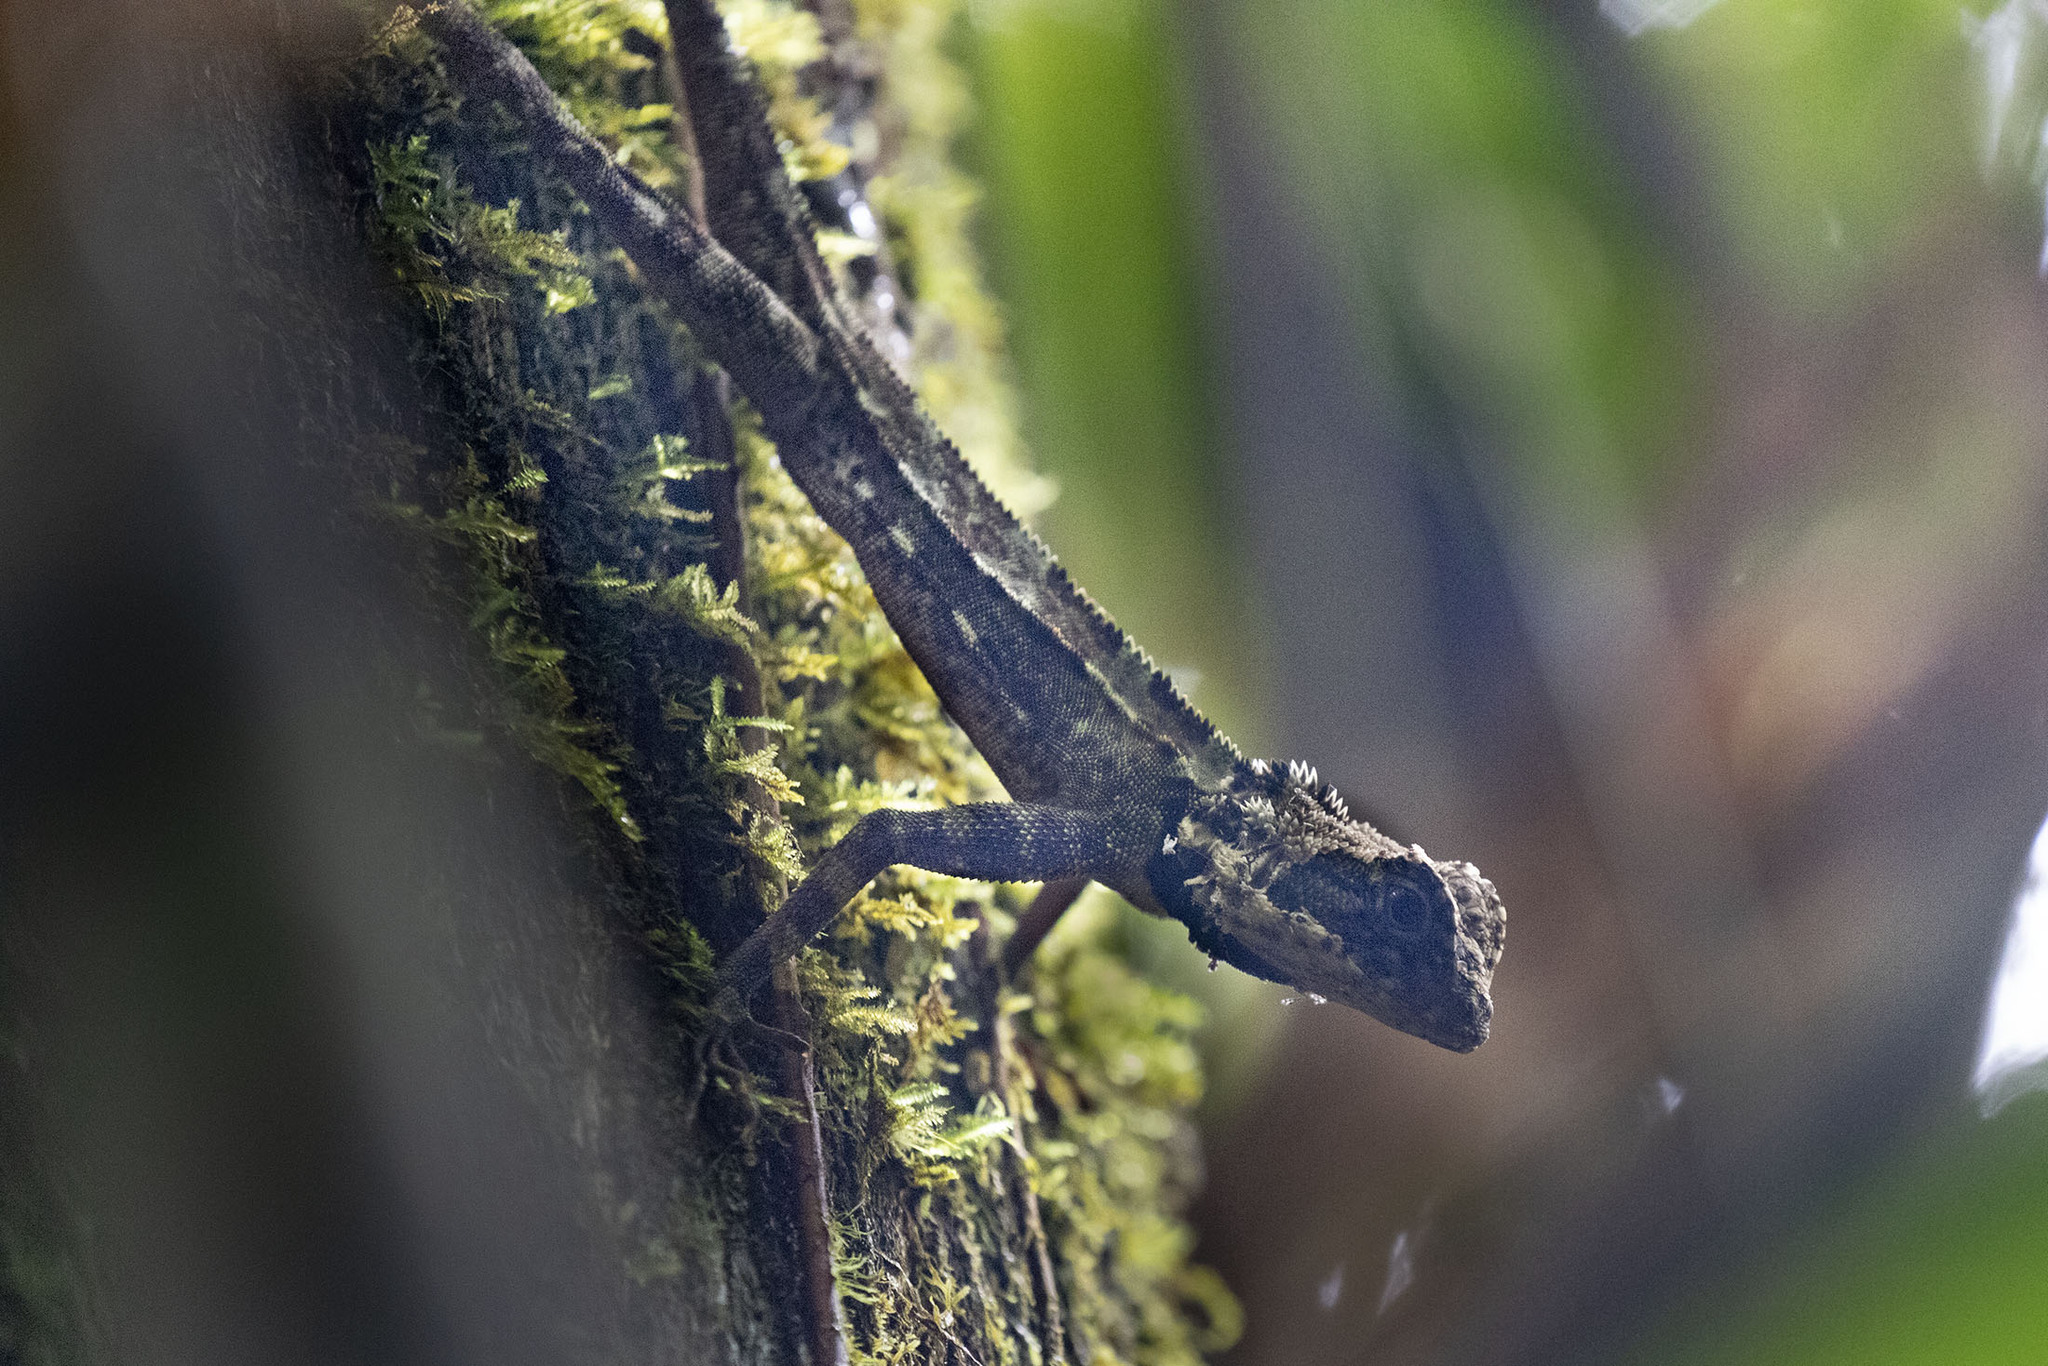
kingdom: Animalia
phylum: Chordata
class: Squamata
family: Tropiduridae
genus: Plica
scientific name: Plica plica
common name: Tree runner
